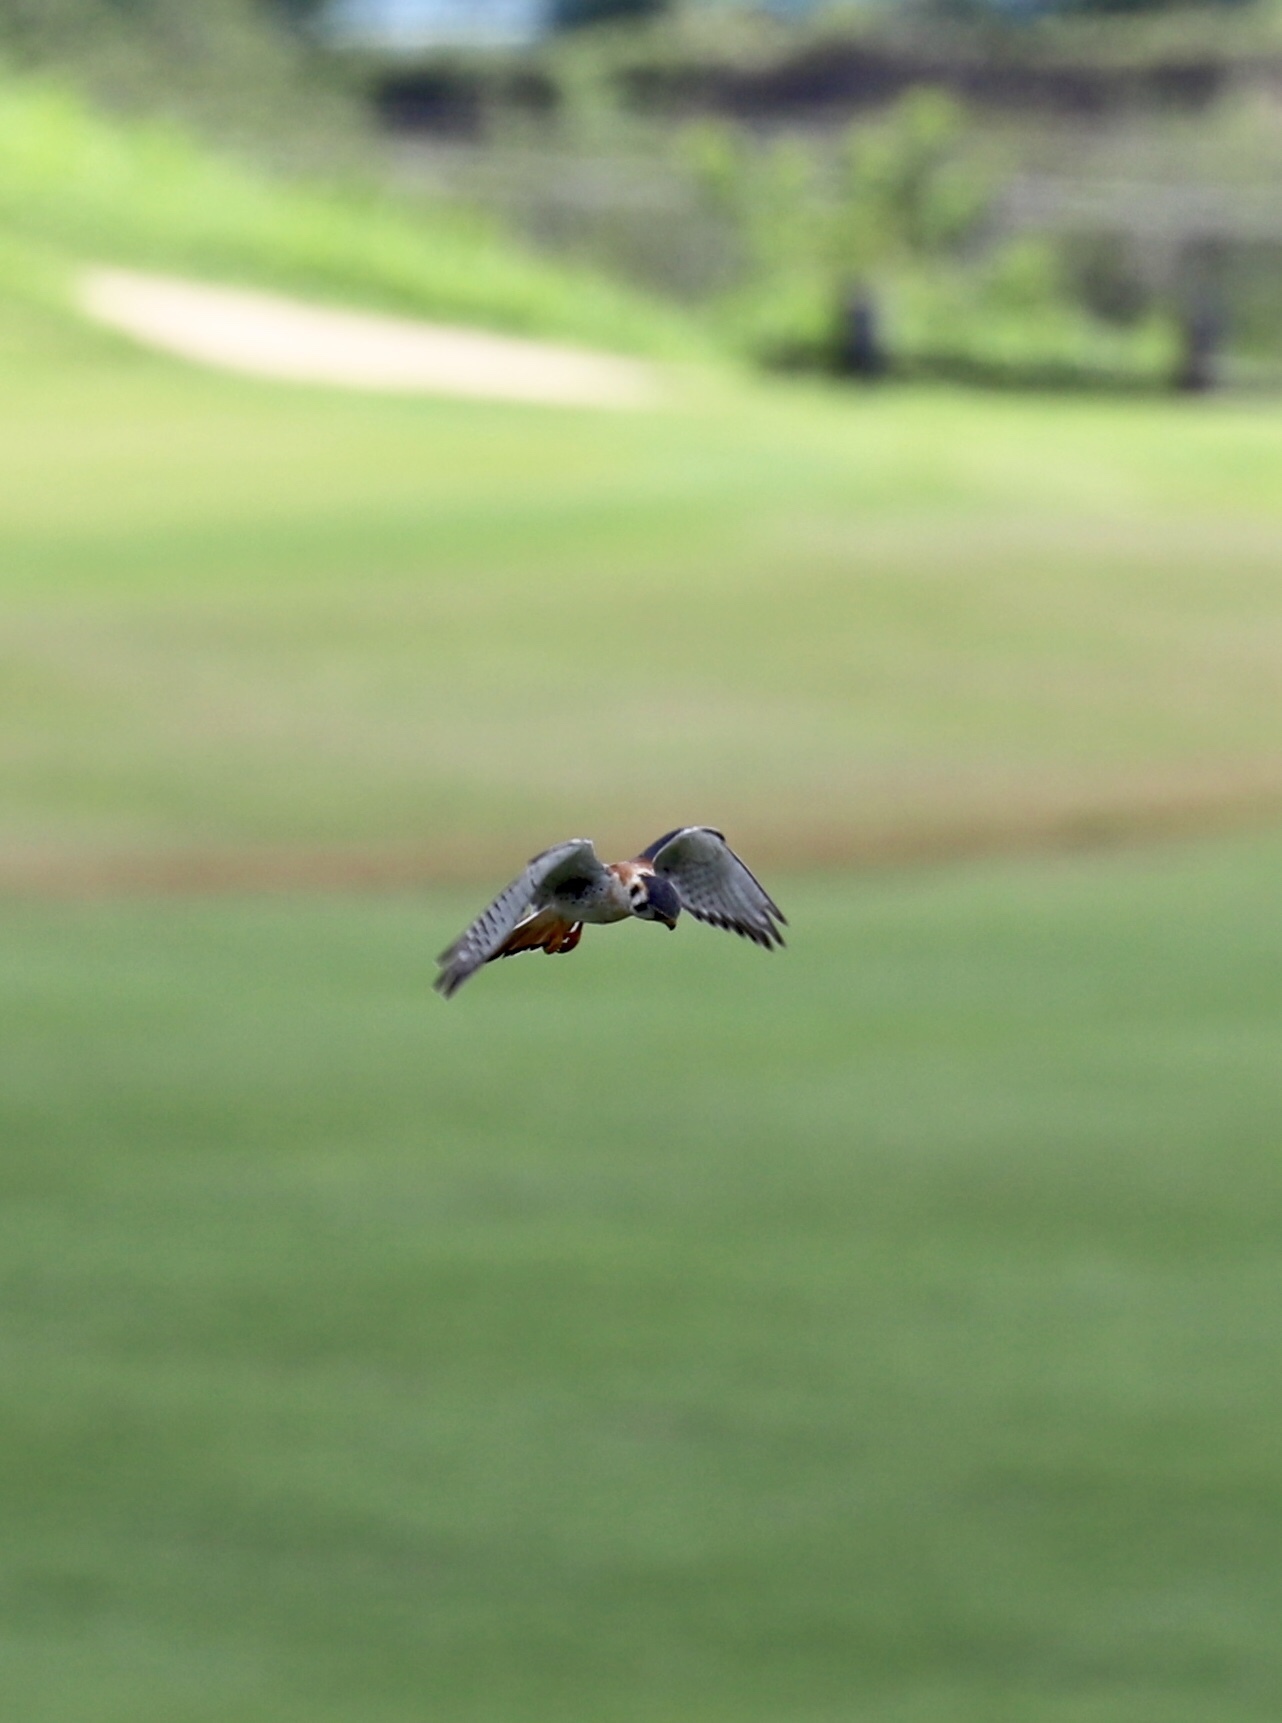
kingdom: Animalia
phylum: Chordata
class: Aves
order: Falconiformes
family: Falconidae
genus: Falco
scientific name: Falco sparverius
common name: American kestrel
